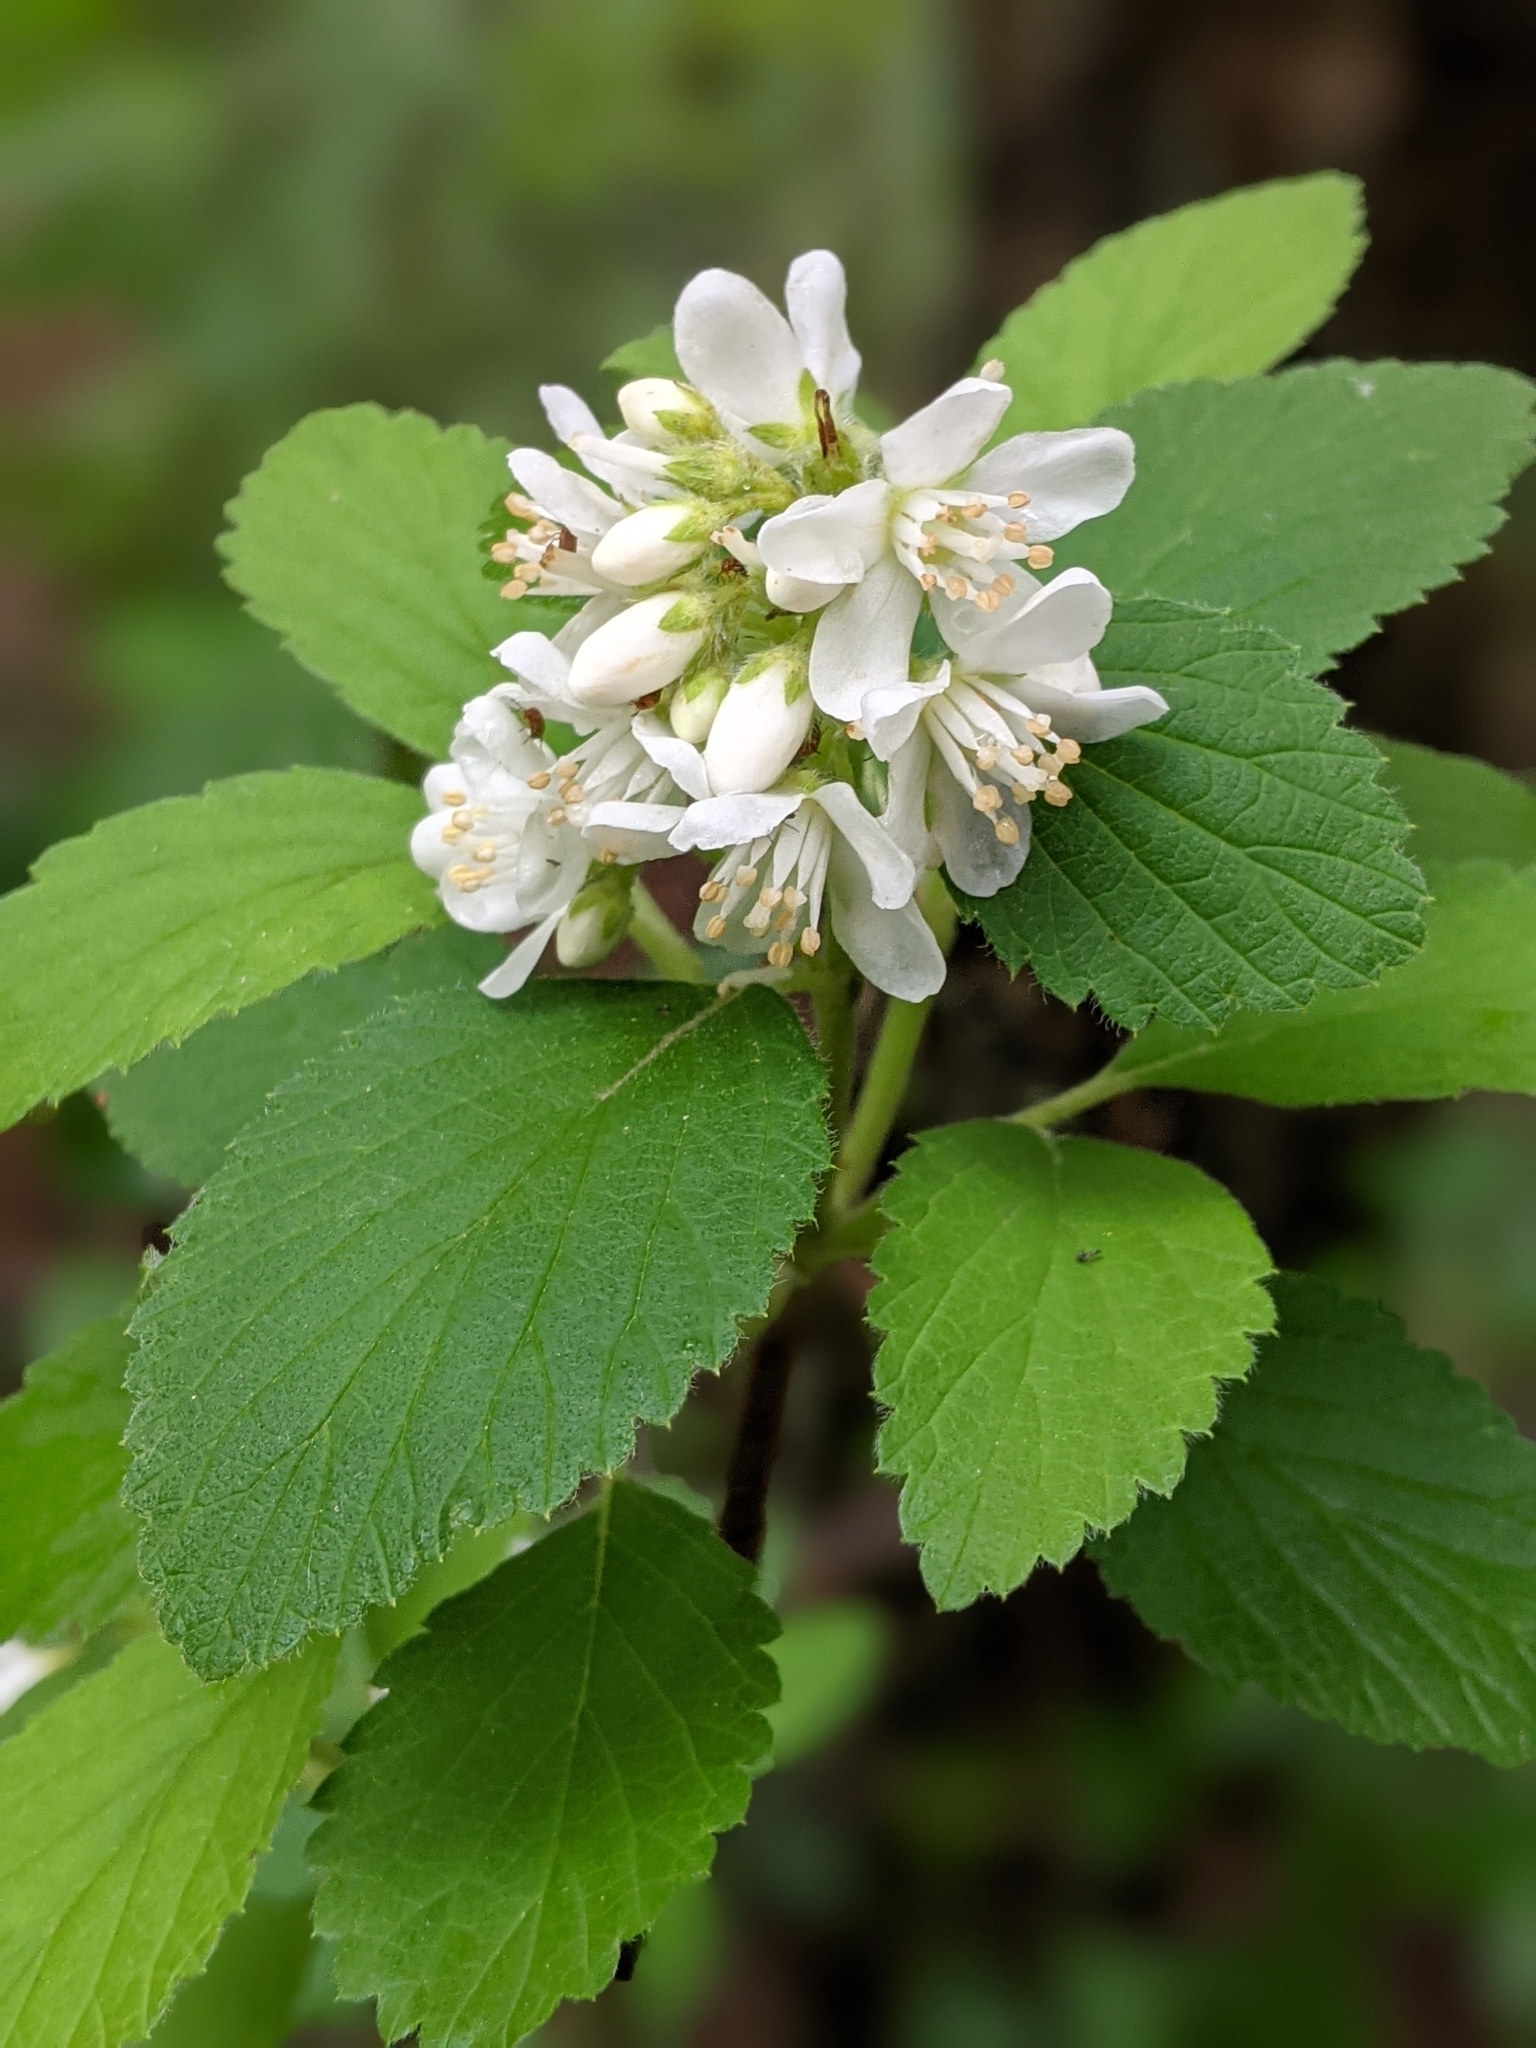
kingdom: Plantae
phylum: Tracheophyta
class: Magnoliopsida
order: Cornales
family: Hydrangeaceae
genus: Jamesia
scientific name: Jamesia americana
